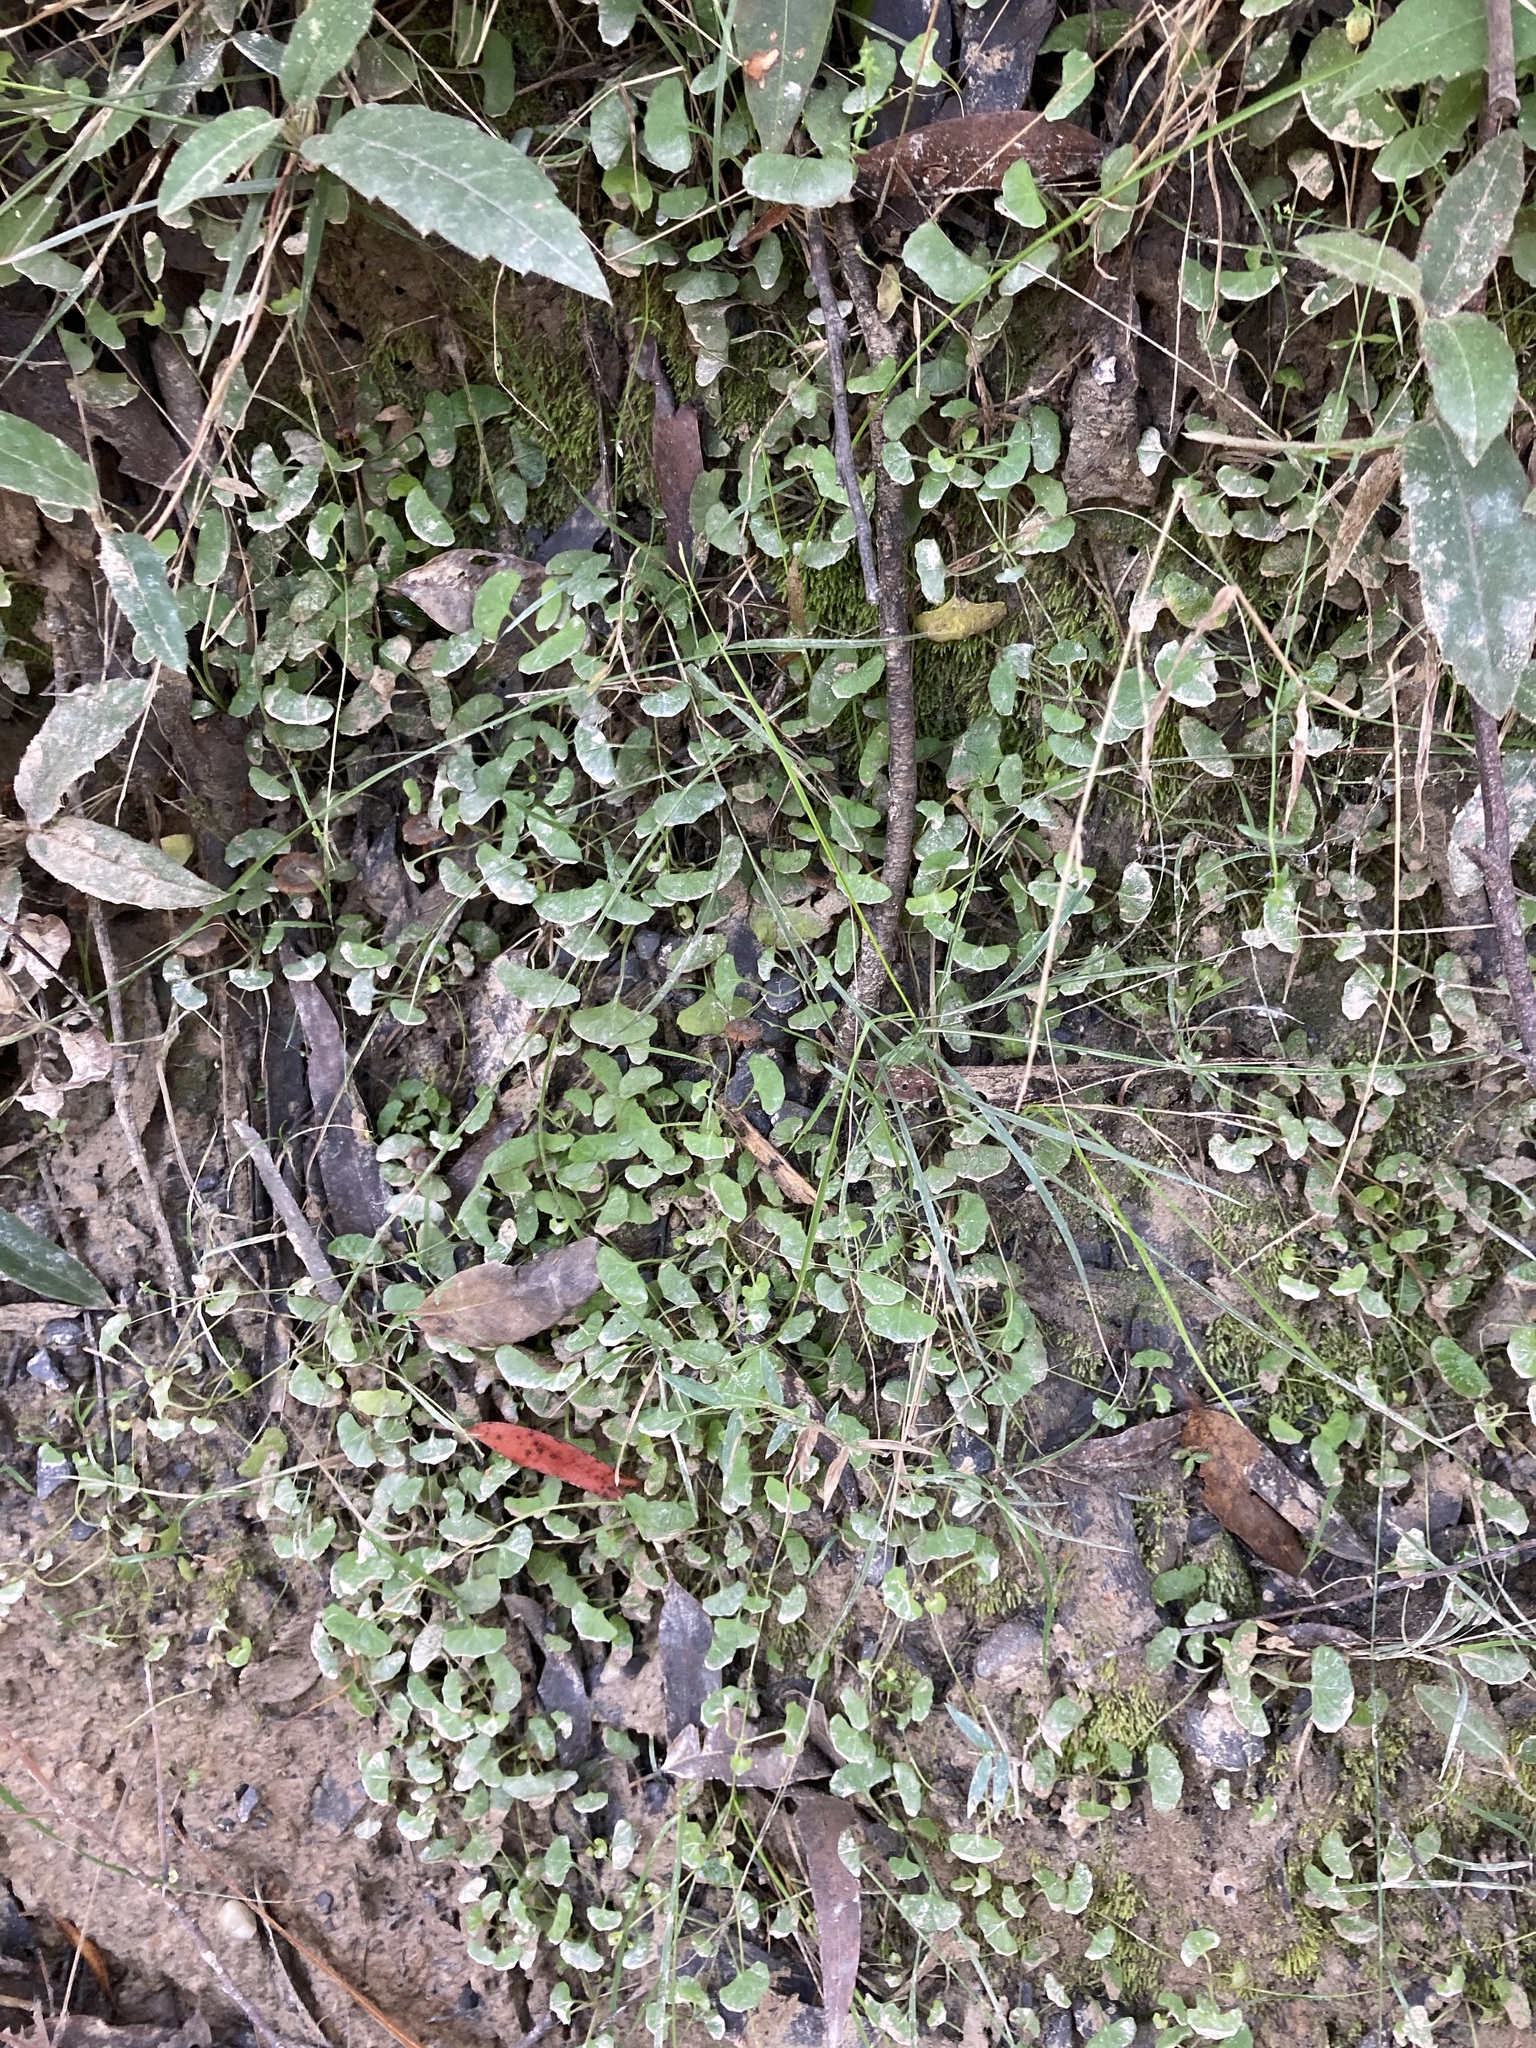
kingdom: Plantae
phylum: Tracheophyta
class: Magnoliopsida
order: Malpighiales
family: Violaceae
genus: Viola
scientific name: Viola silicestris
